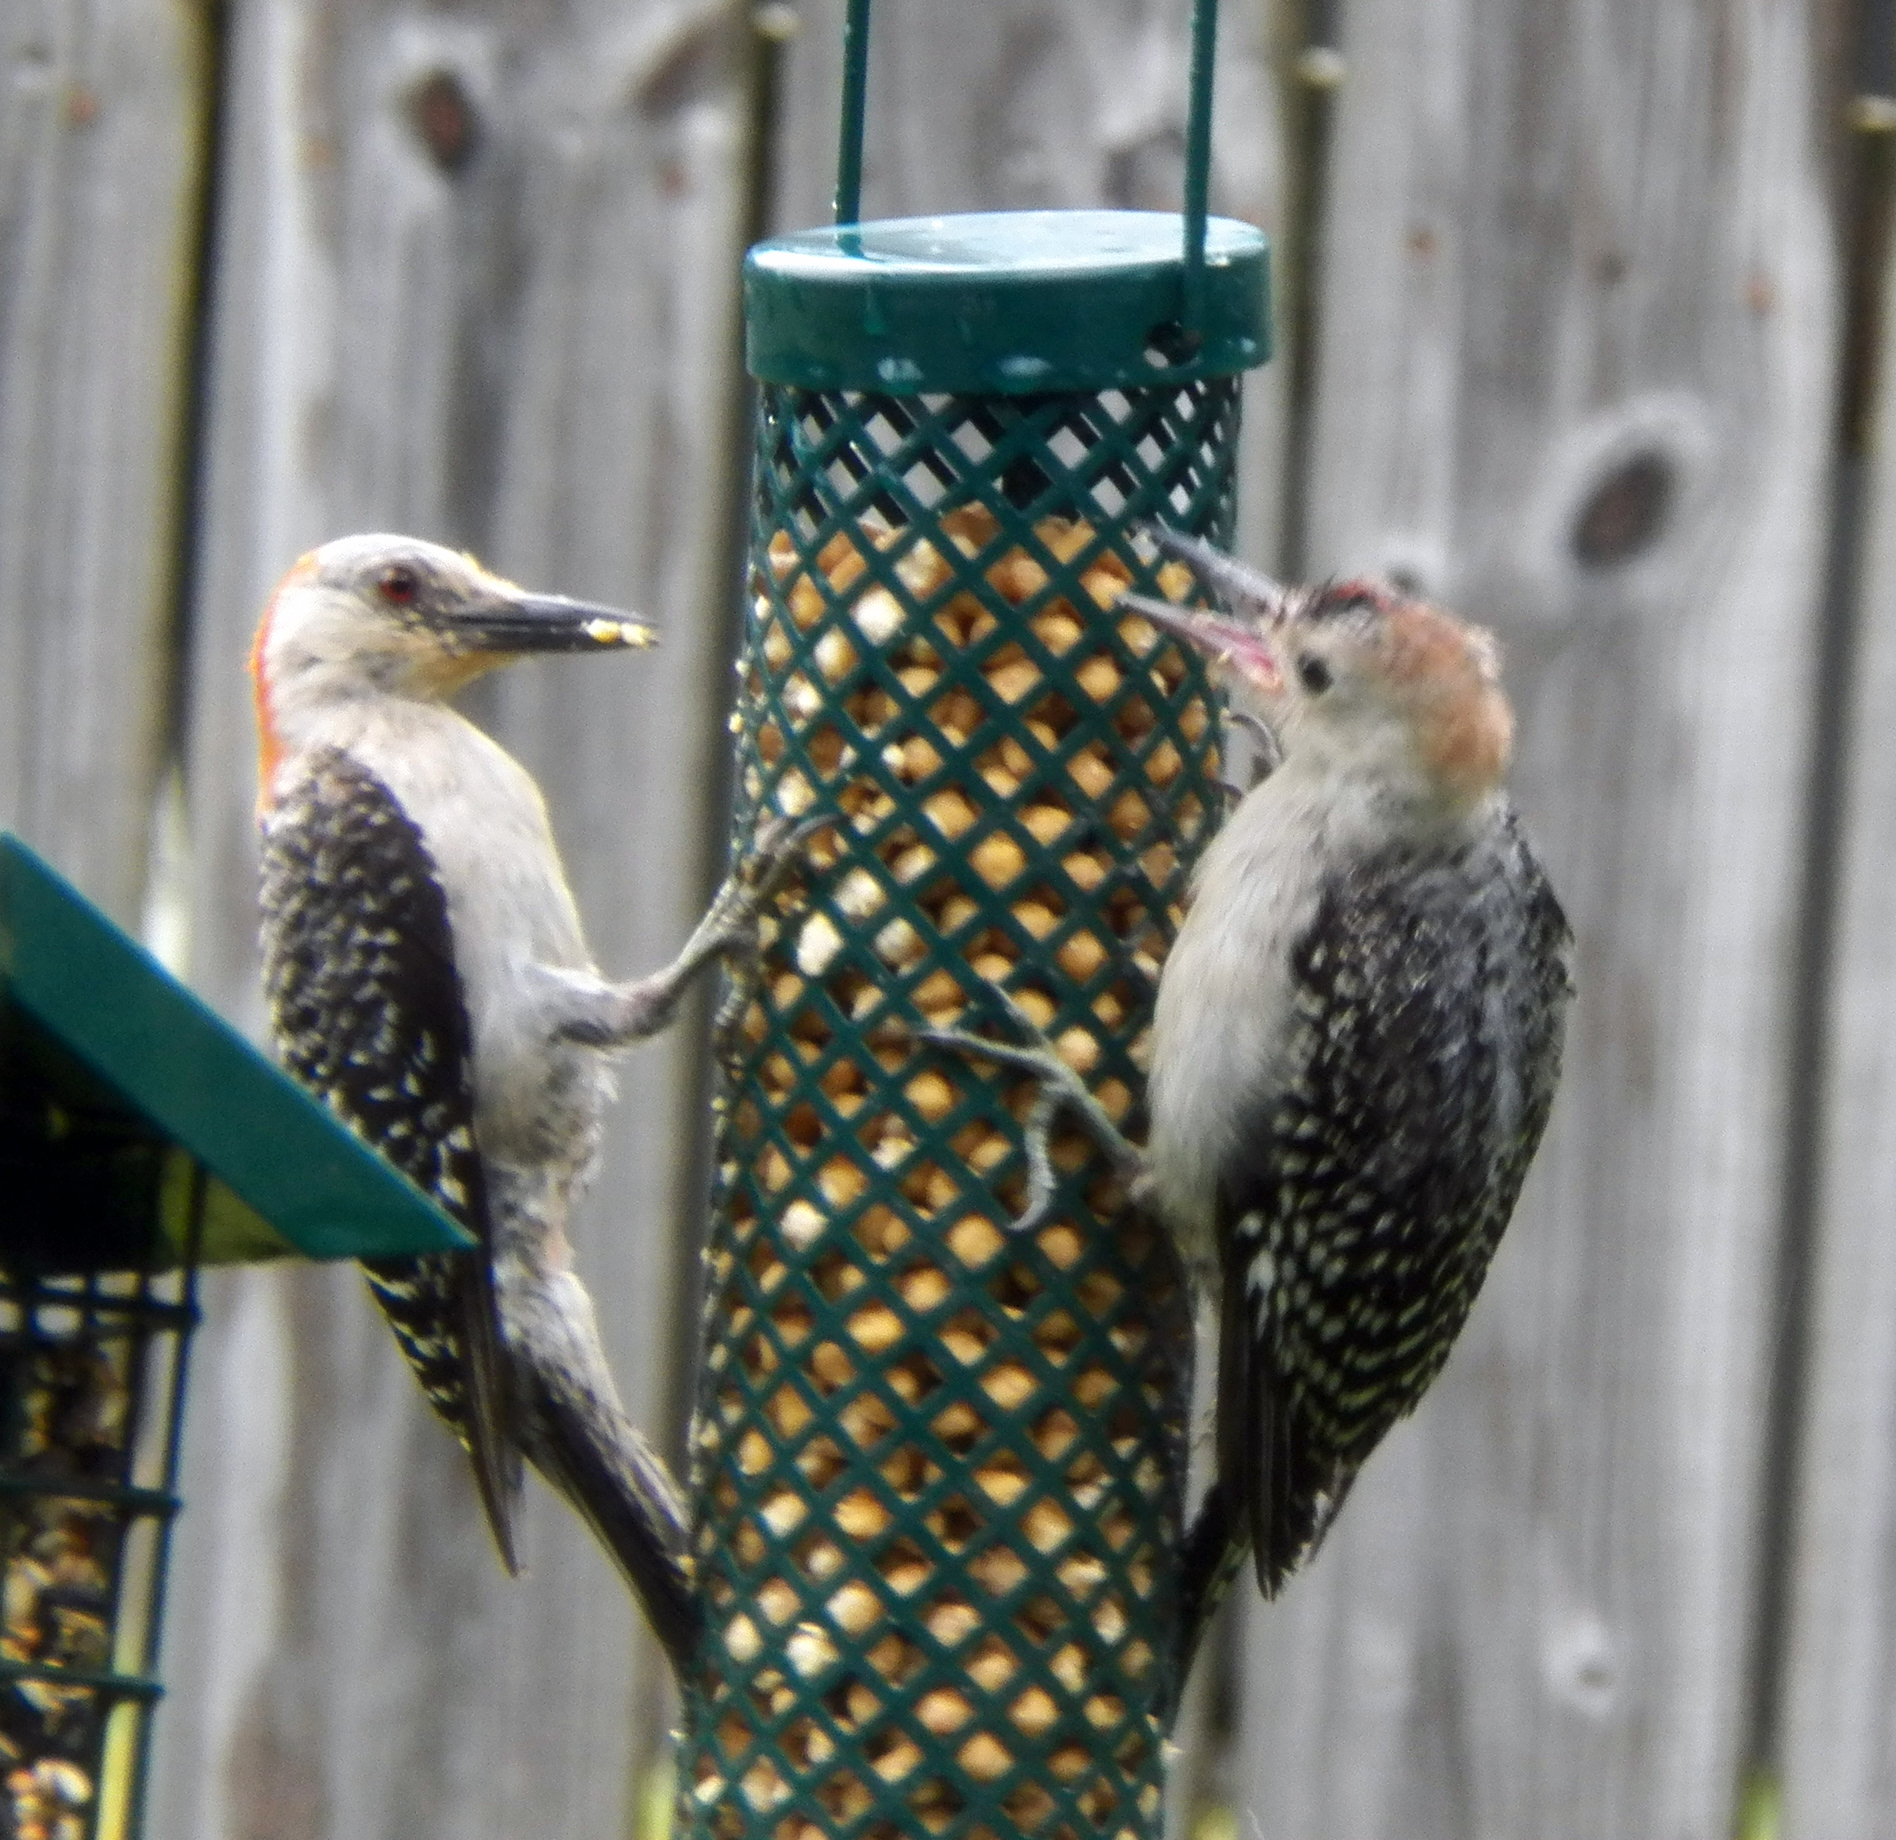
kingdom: Animalia
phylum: Chordata
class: Aves
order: Piciformes
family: Picidae
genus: Melanerpes
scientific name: Melanerpes carolinus
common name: Red-bellied woodpecker
